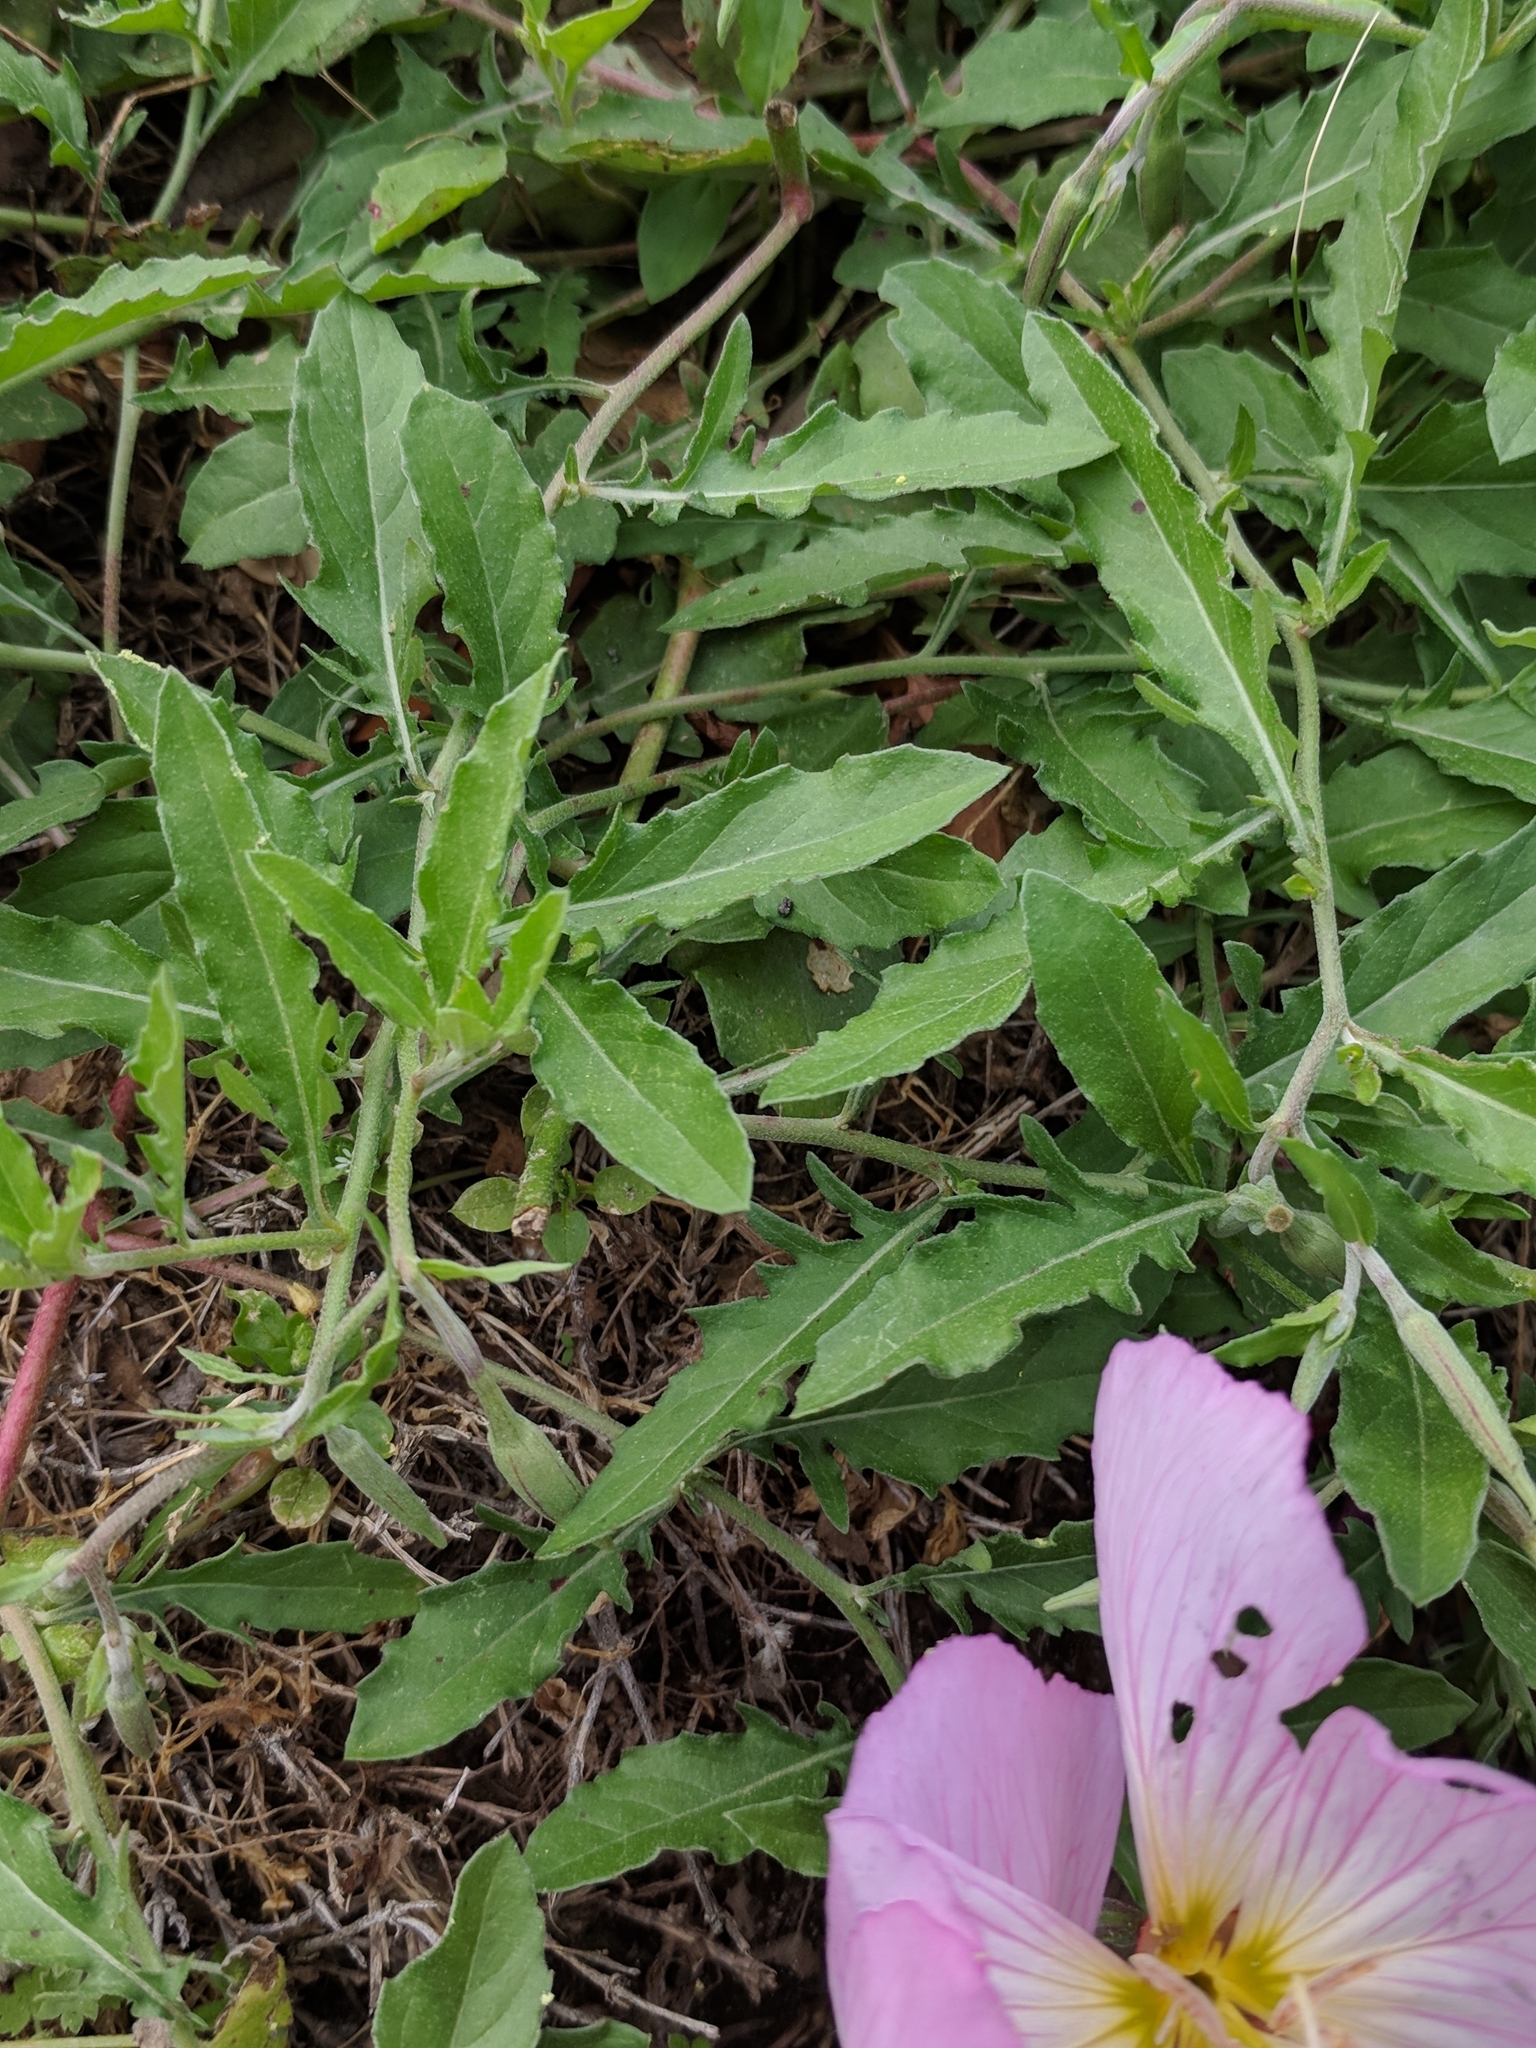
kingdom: Plantae
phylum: Tracheophyta
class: Magnoliopsida
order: Myrtales
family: Onagraceae
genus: Oenothera
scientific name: Oenothera speciosa
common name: White evening-primrose
